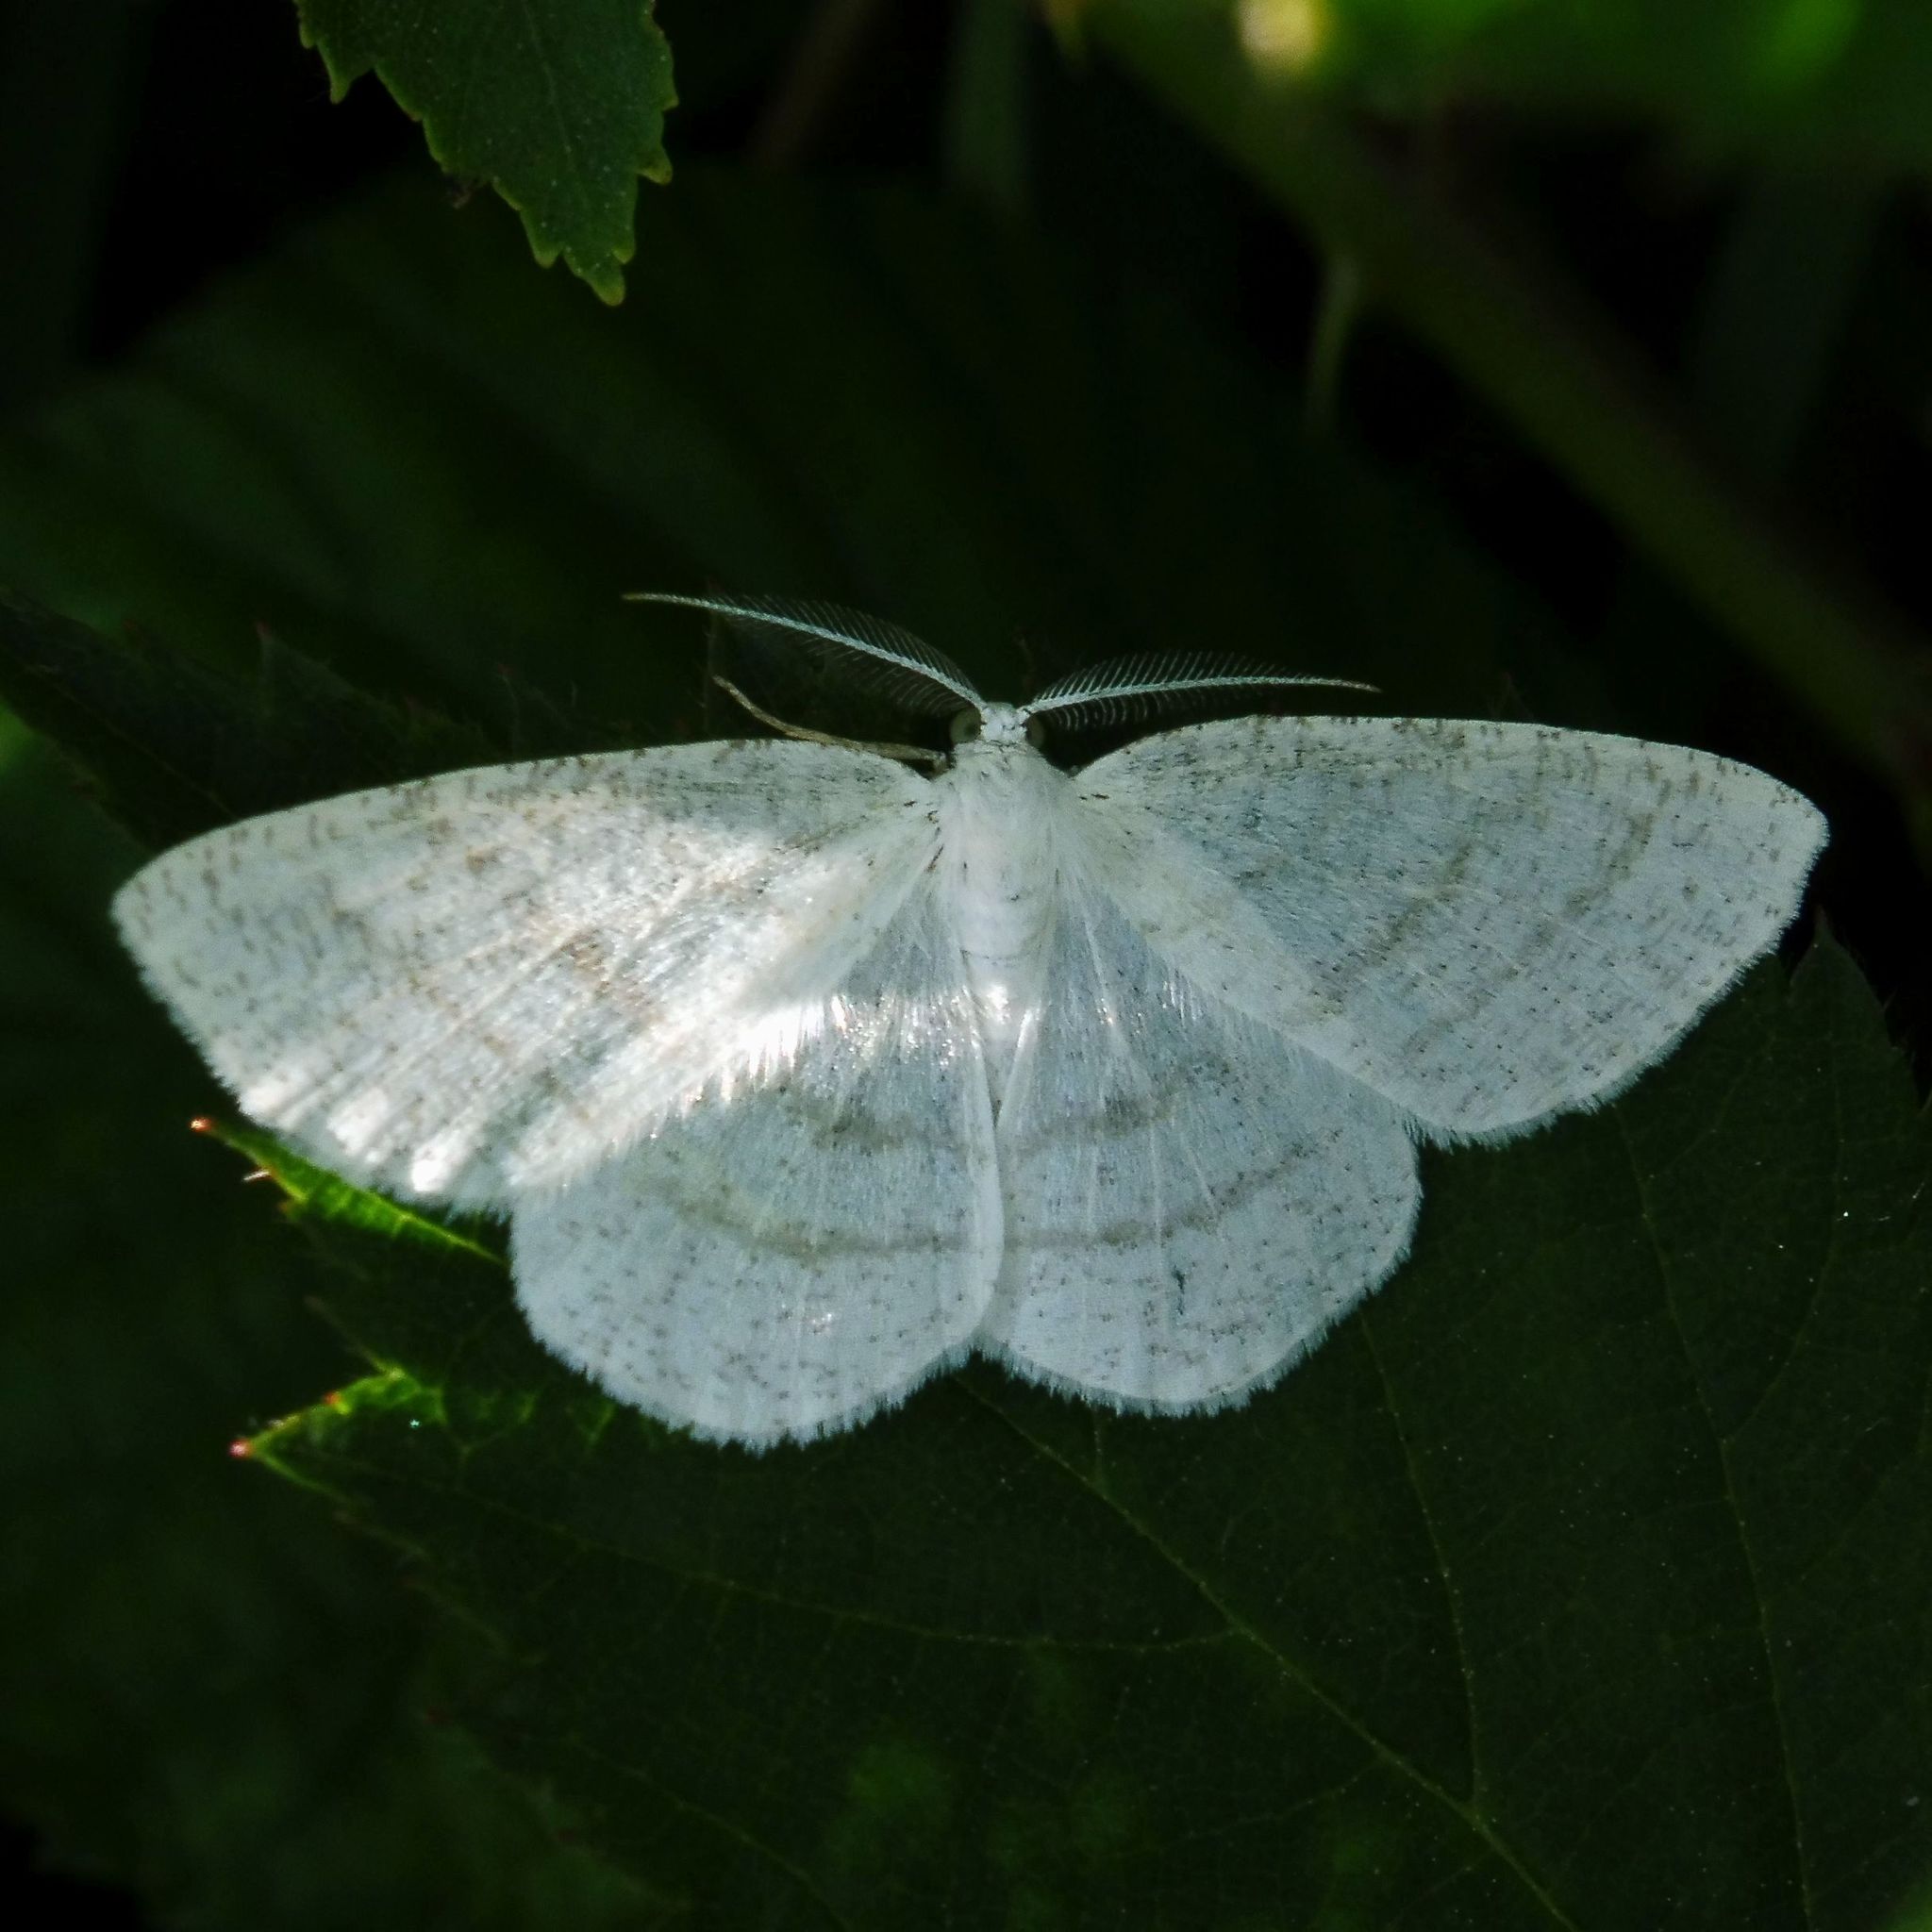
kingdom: Animalia
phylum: Arthropoda
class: Insecta
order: Lepidoptera
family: Geometridae
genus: Cabera
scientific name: Cabera pusaria
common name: Common white wave
